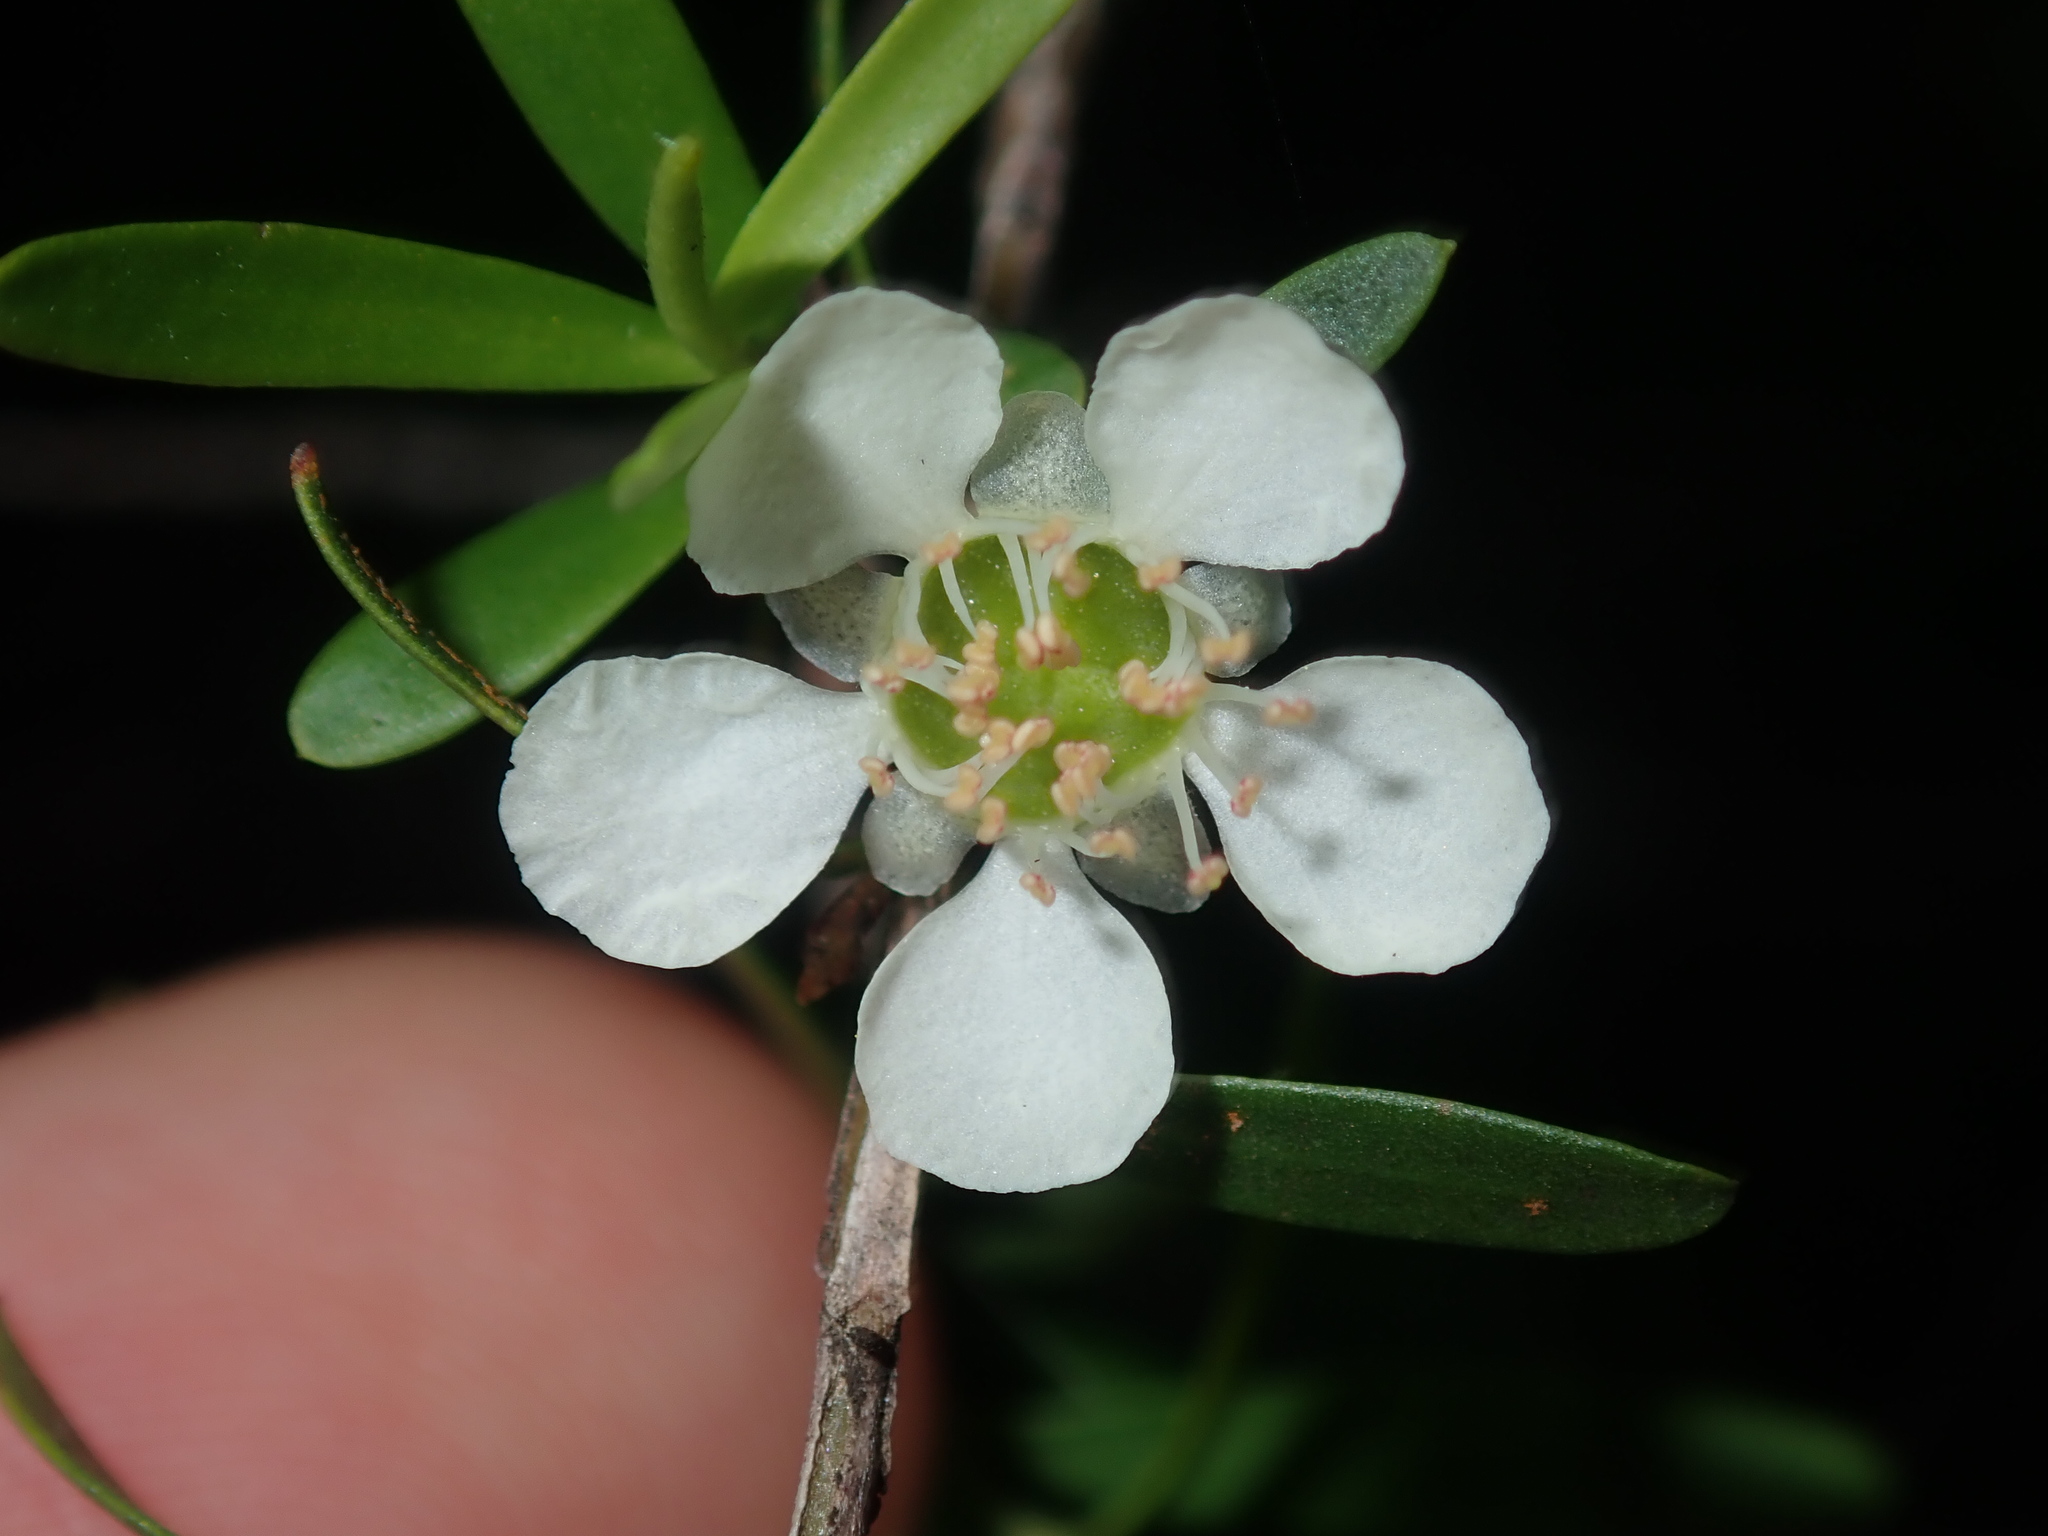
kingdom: Plantae
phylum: Tracheophyta
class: Magnoliopsida
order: Myrtales
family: Myrtaceae
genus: Leptospermum
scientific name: Leptospermum polygalifolium
